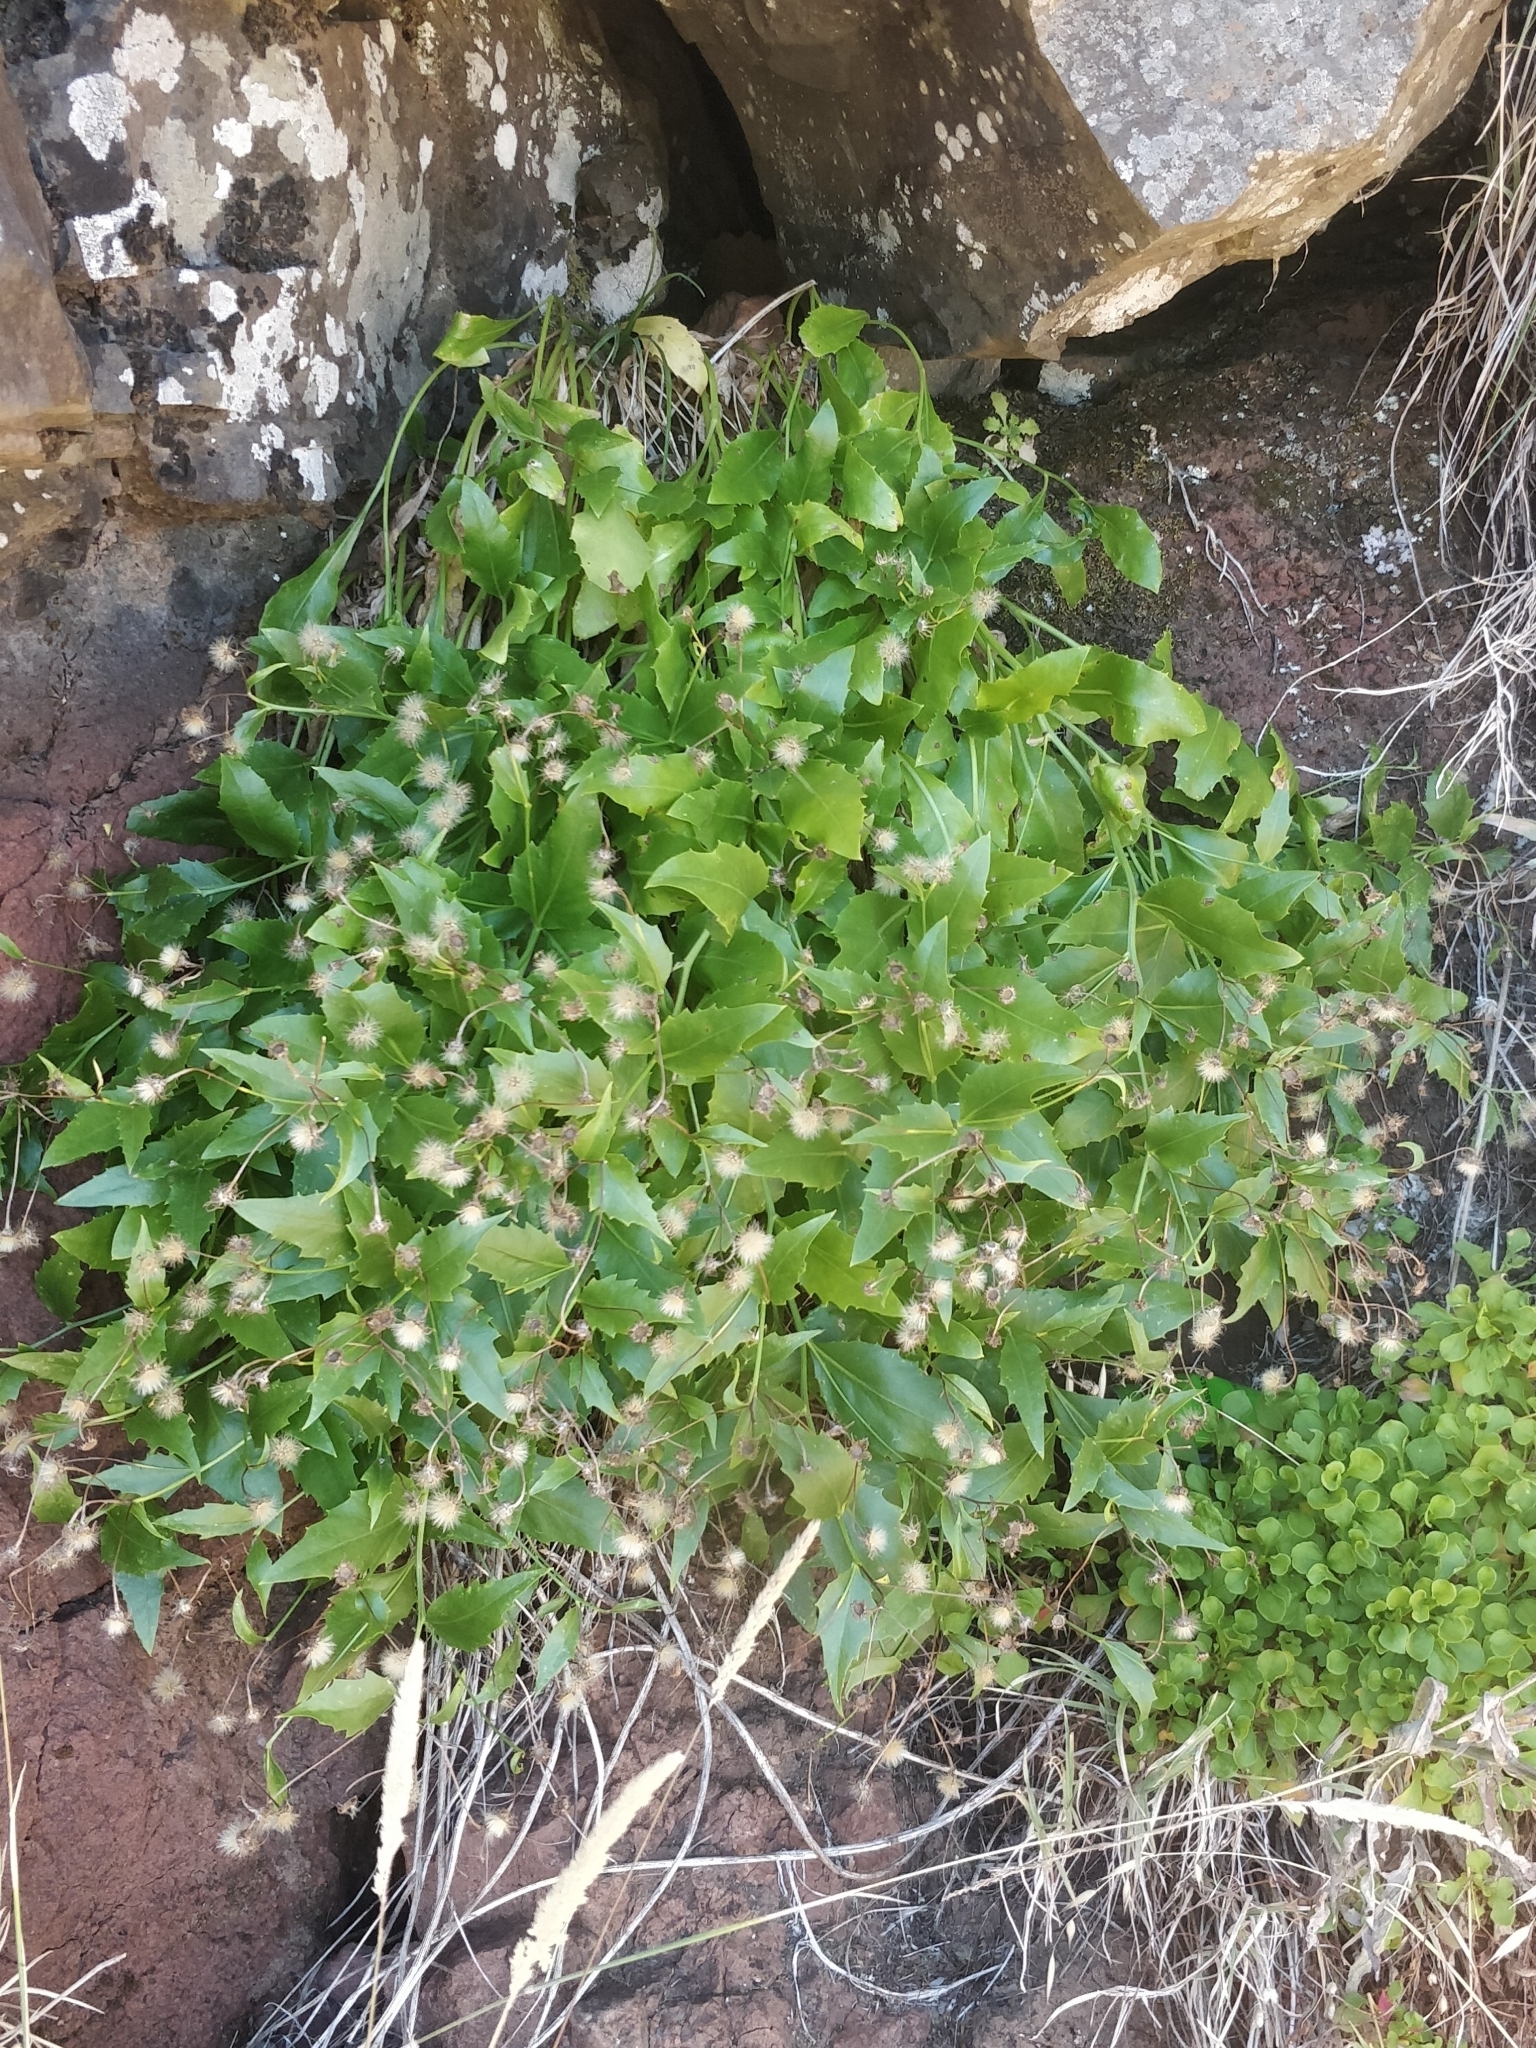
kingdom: Plantae
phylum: Tracheophyta
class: Magnoliopsida
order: Asterales
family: Asteraceae
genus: Tolpis
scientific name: Tolpis macrorhiza
